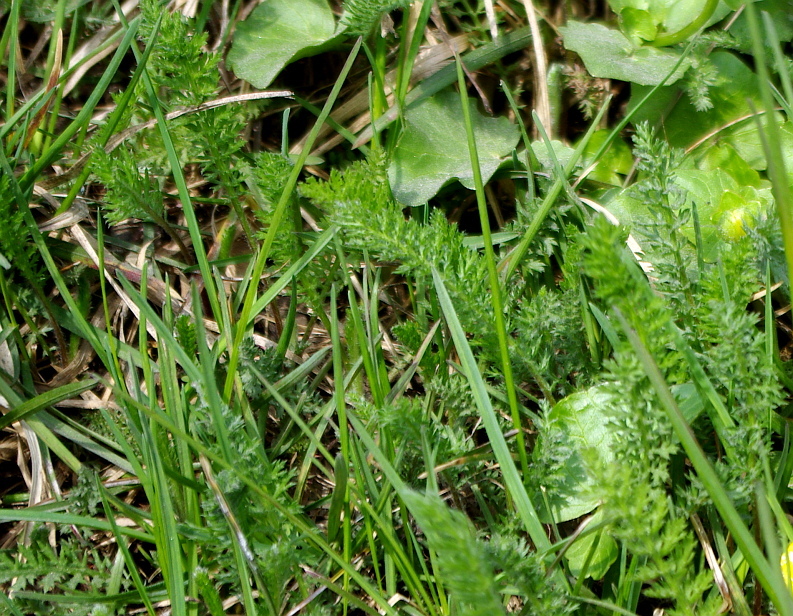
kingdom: Plantae
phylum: Tracheophyta
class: Magnoliopsida
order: Asterales
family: Asteraceae
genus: Achillea
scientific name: Achillea millefolium
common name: Yarrow
